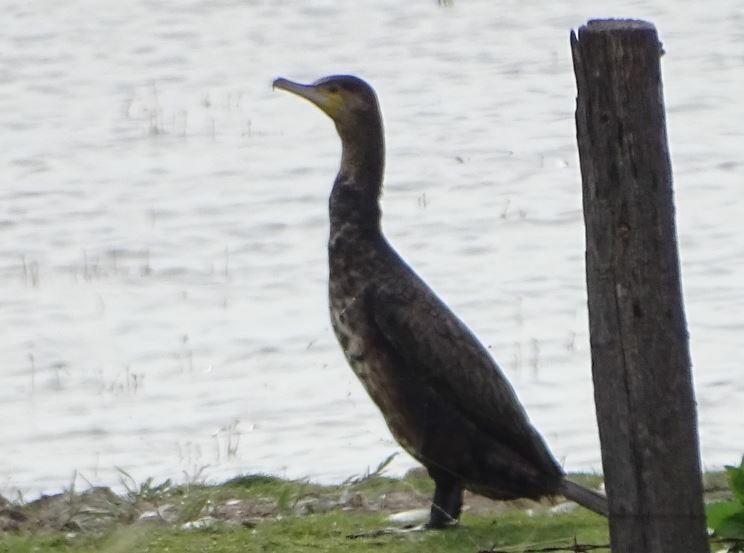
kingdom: Animalia
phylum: Chordata
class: Aves
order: Suliformes
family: Phalacrocoracidae
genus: Phalacrocorax
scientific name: Phalacrocorax carbo
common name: Great cormorant
